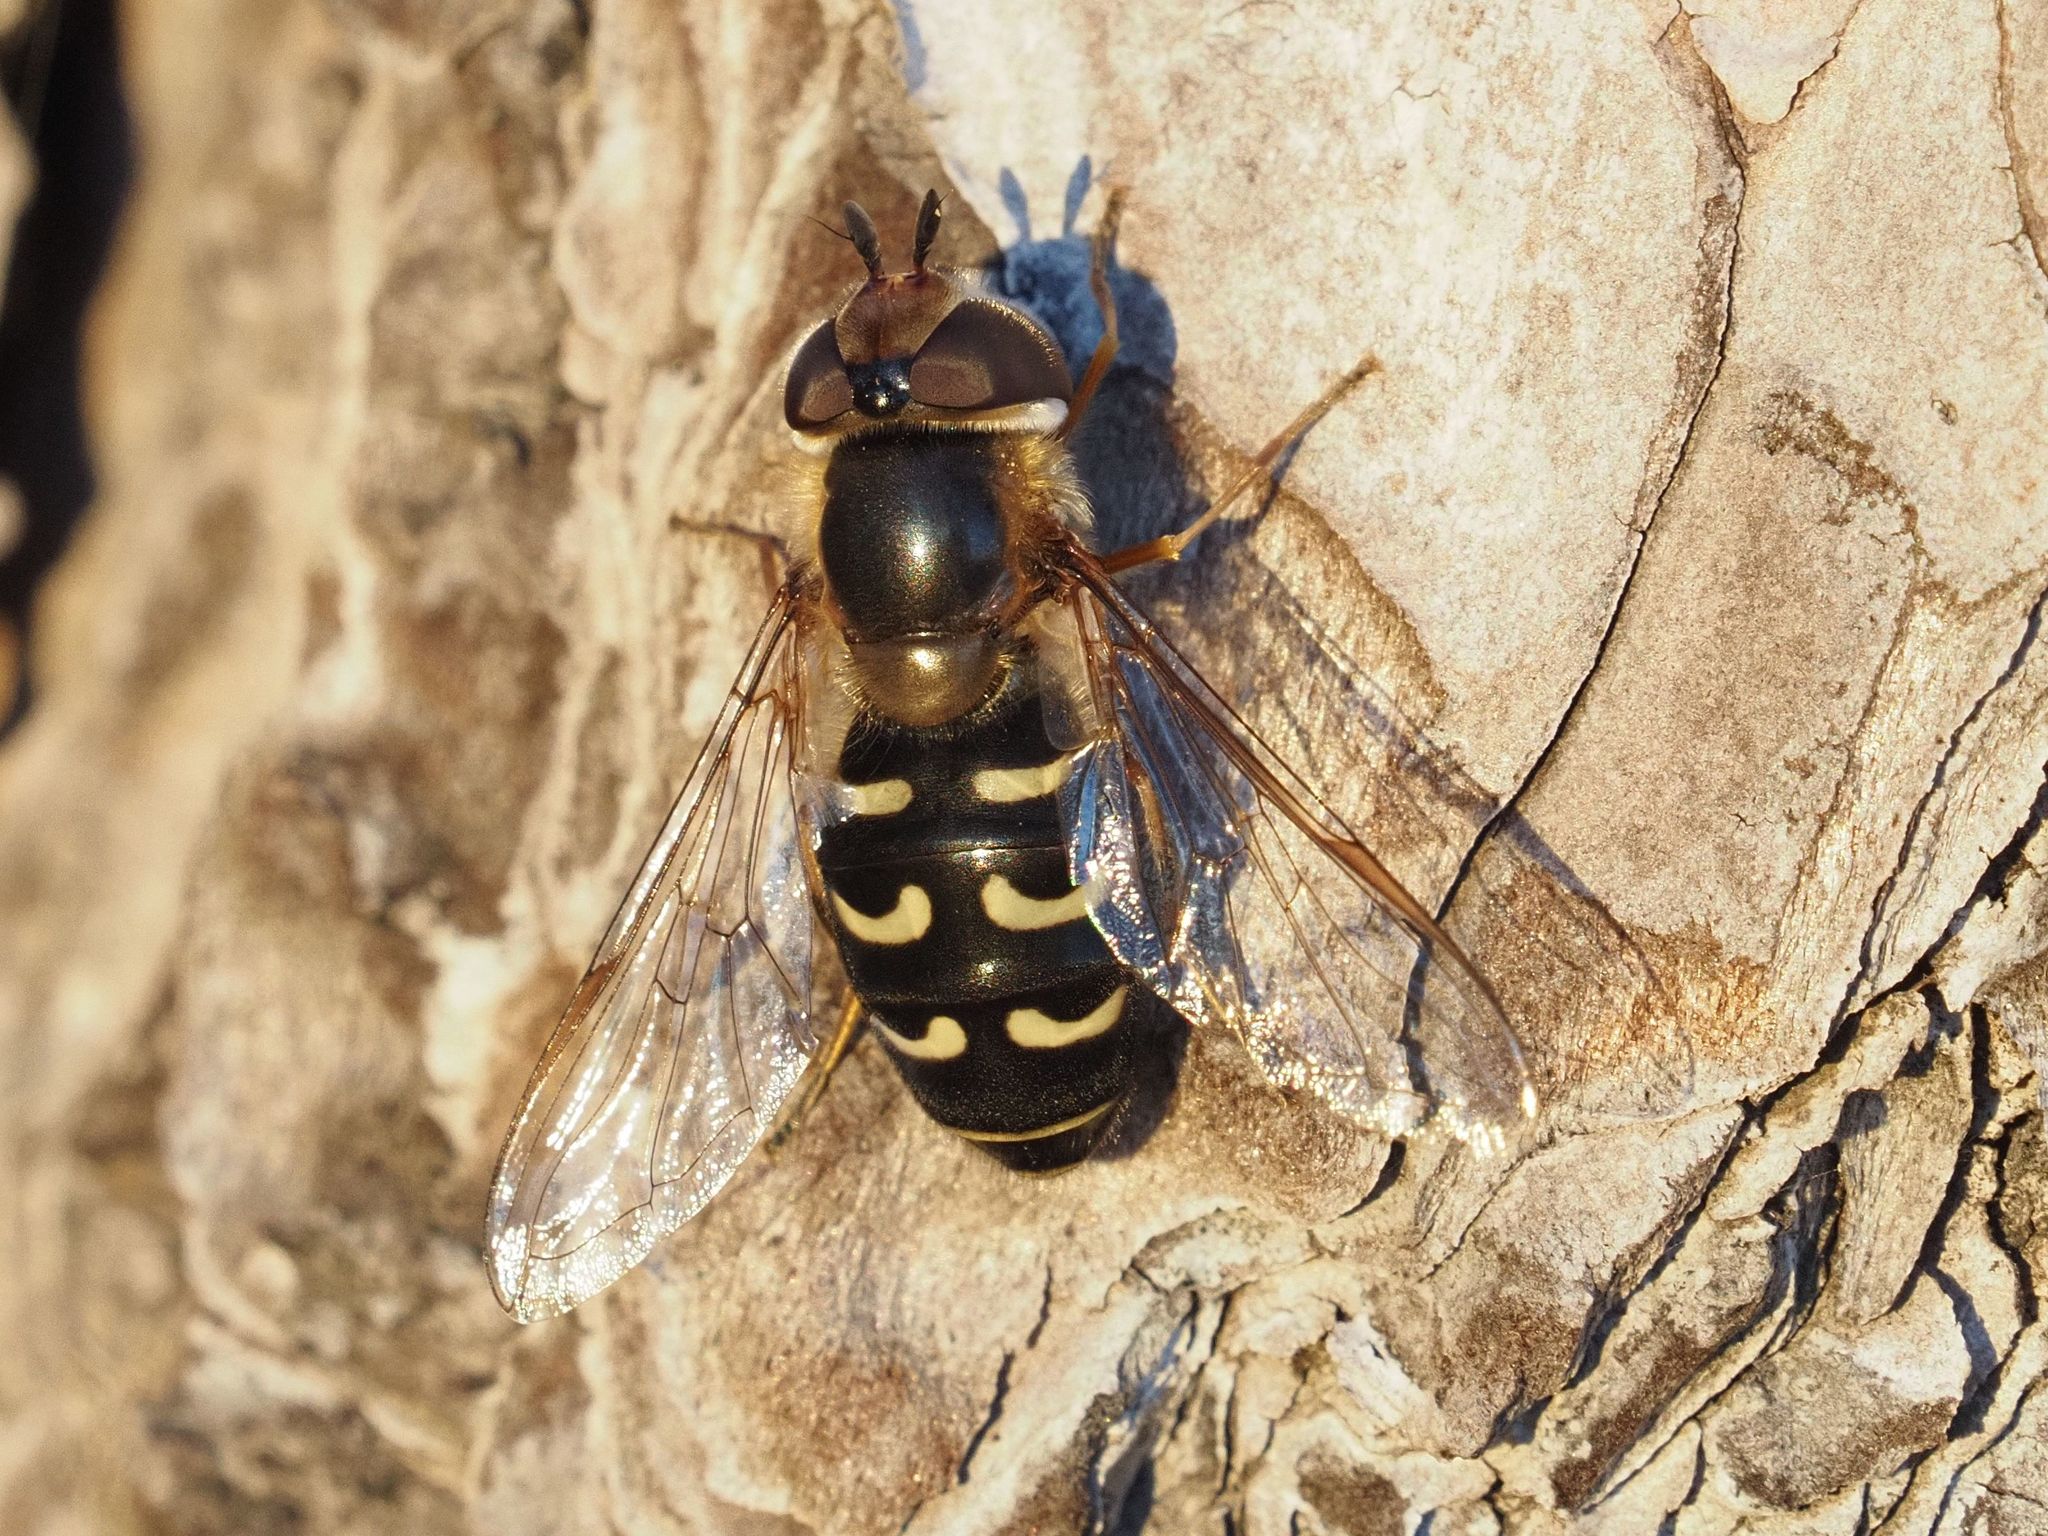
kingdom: Animalia
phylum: Arthropoda
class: Insecta
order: Diptera
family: Syrphidae
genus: Scaeva
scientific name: Scaeva pyrastri
